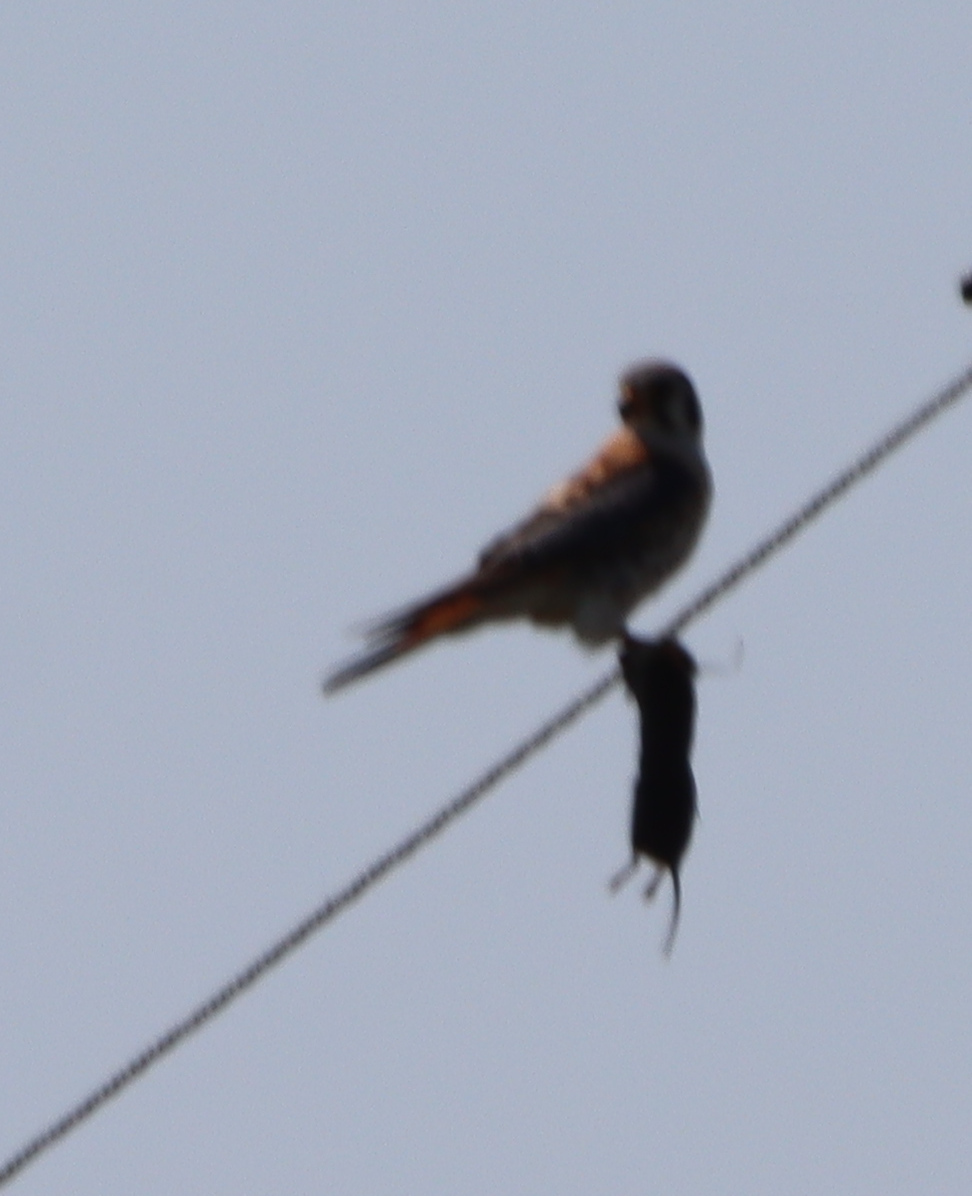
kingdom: Animalia
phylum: Chordata
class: Aves
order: Falconiformes
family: Falconidae
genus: Falco
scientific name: Falco sparverius
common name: American kestrel
